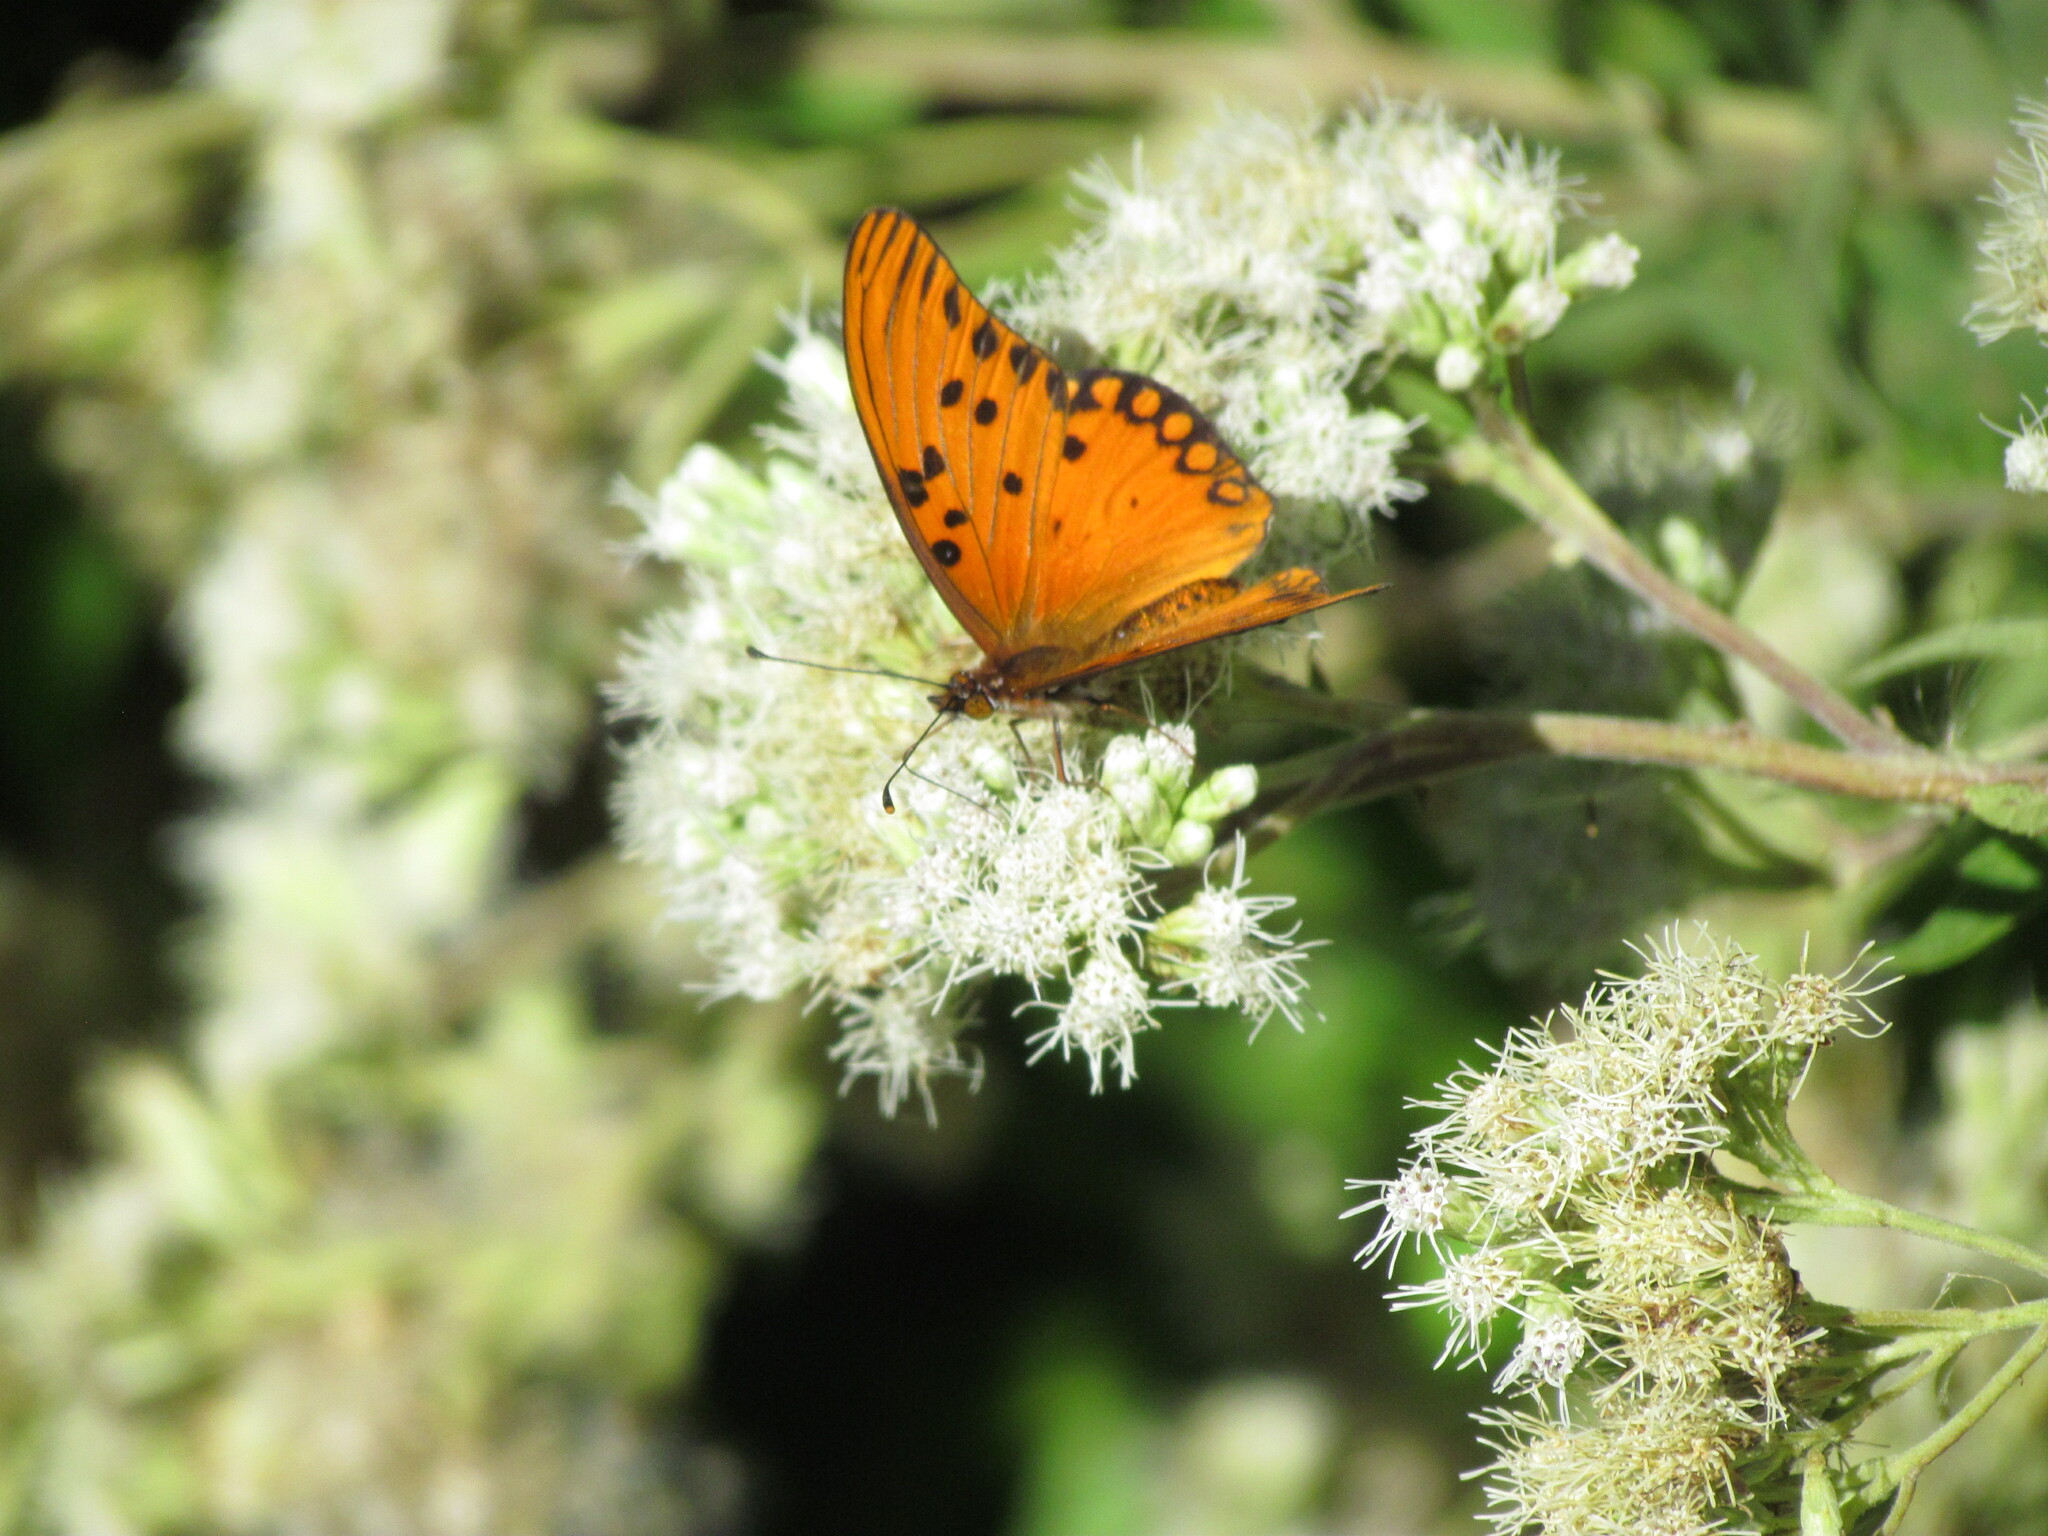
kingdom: Animalia
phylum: Arthropoda
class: Insecta
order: Lepidoptera
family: Nymphalidae
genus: Dione
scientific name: Dione vanillae
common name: Gulf fritillary
